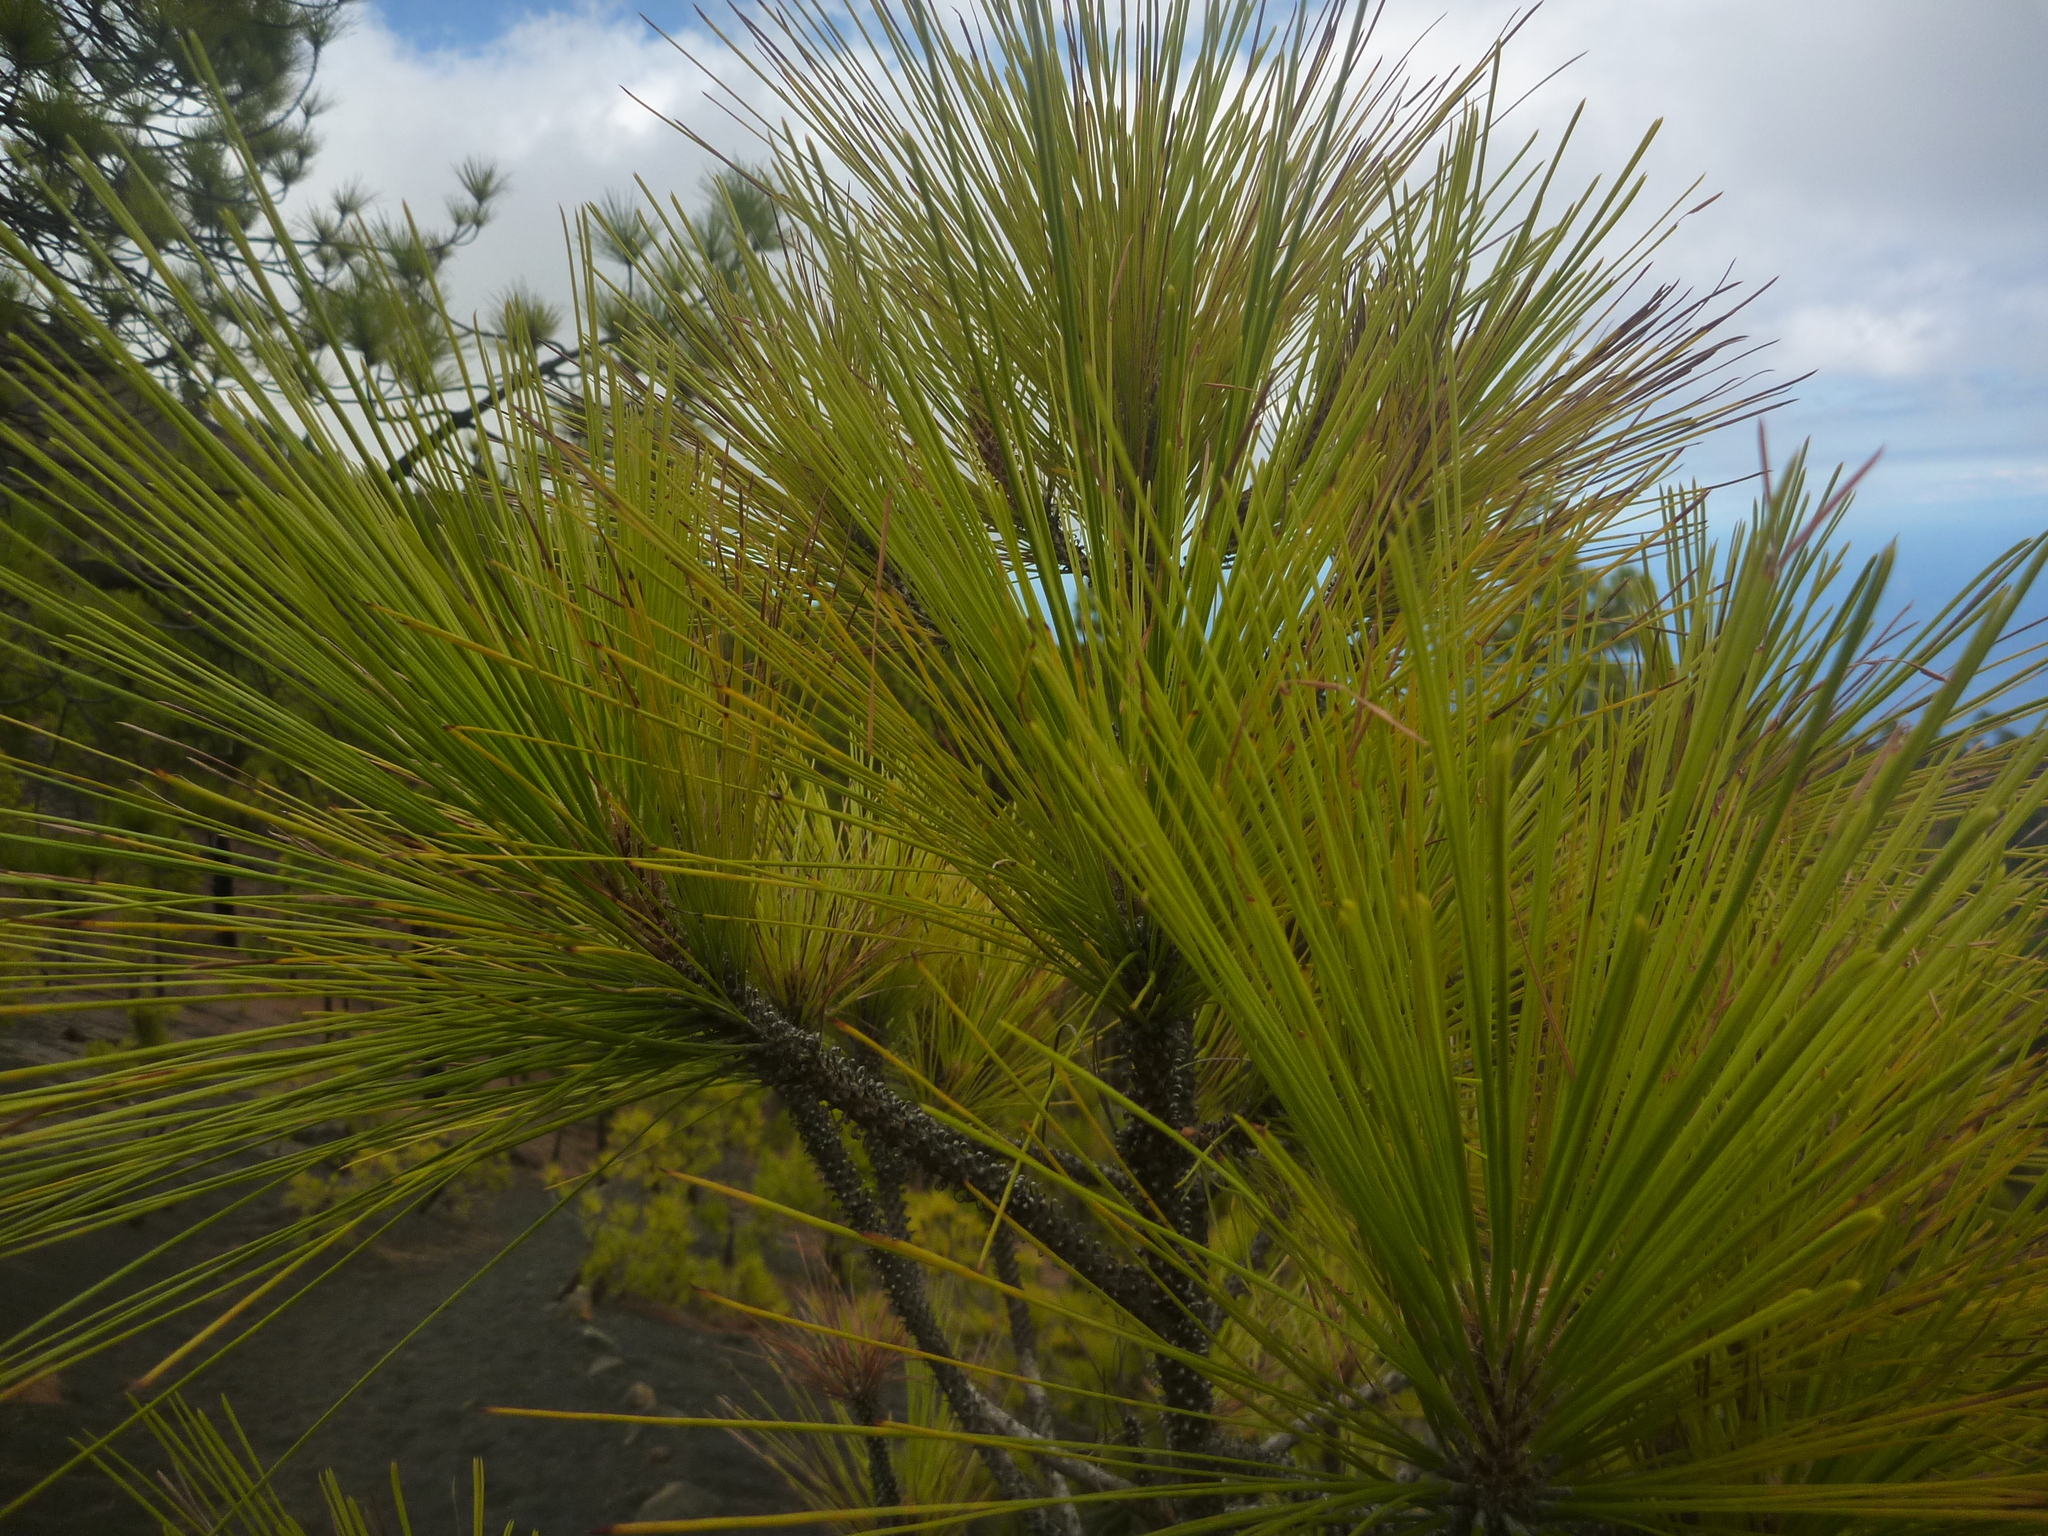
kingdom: Plantae
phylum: Tracheophyta
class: Pinopsida
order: Pinales
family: Pinaceae
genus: Pinus
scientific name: Pinus canariensis
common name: Canary islands pine
